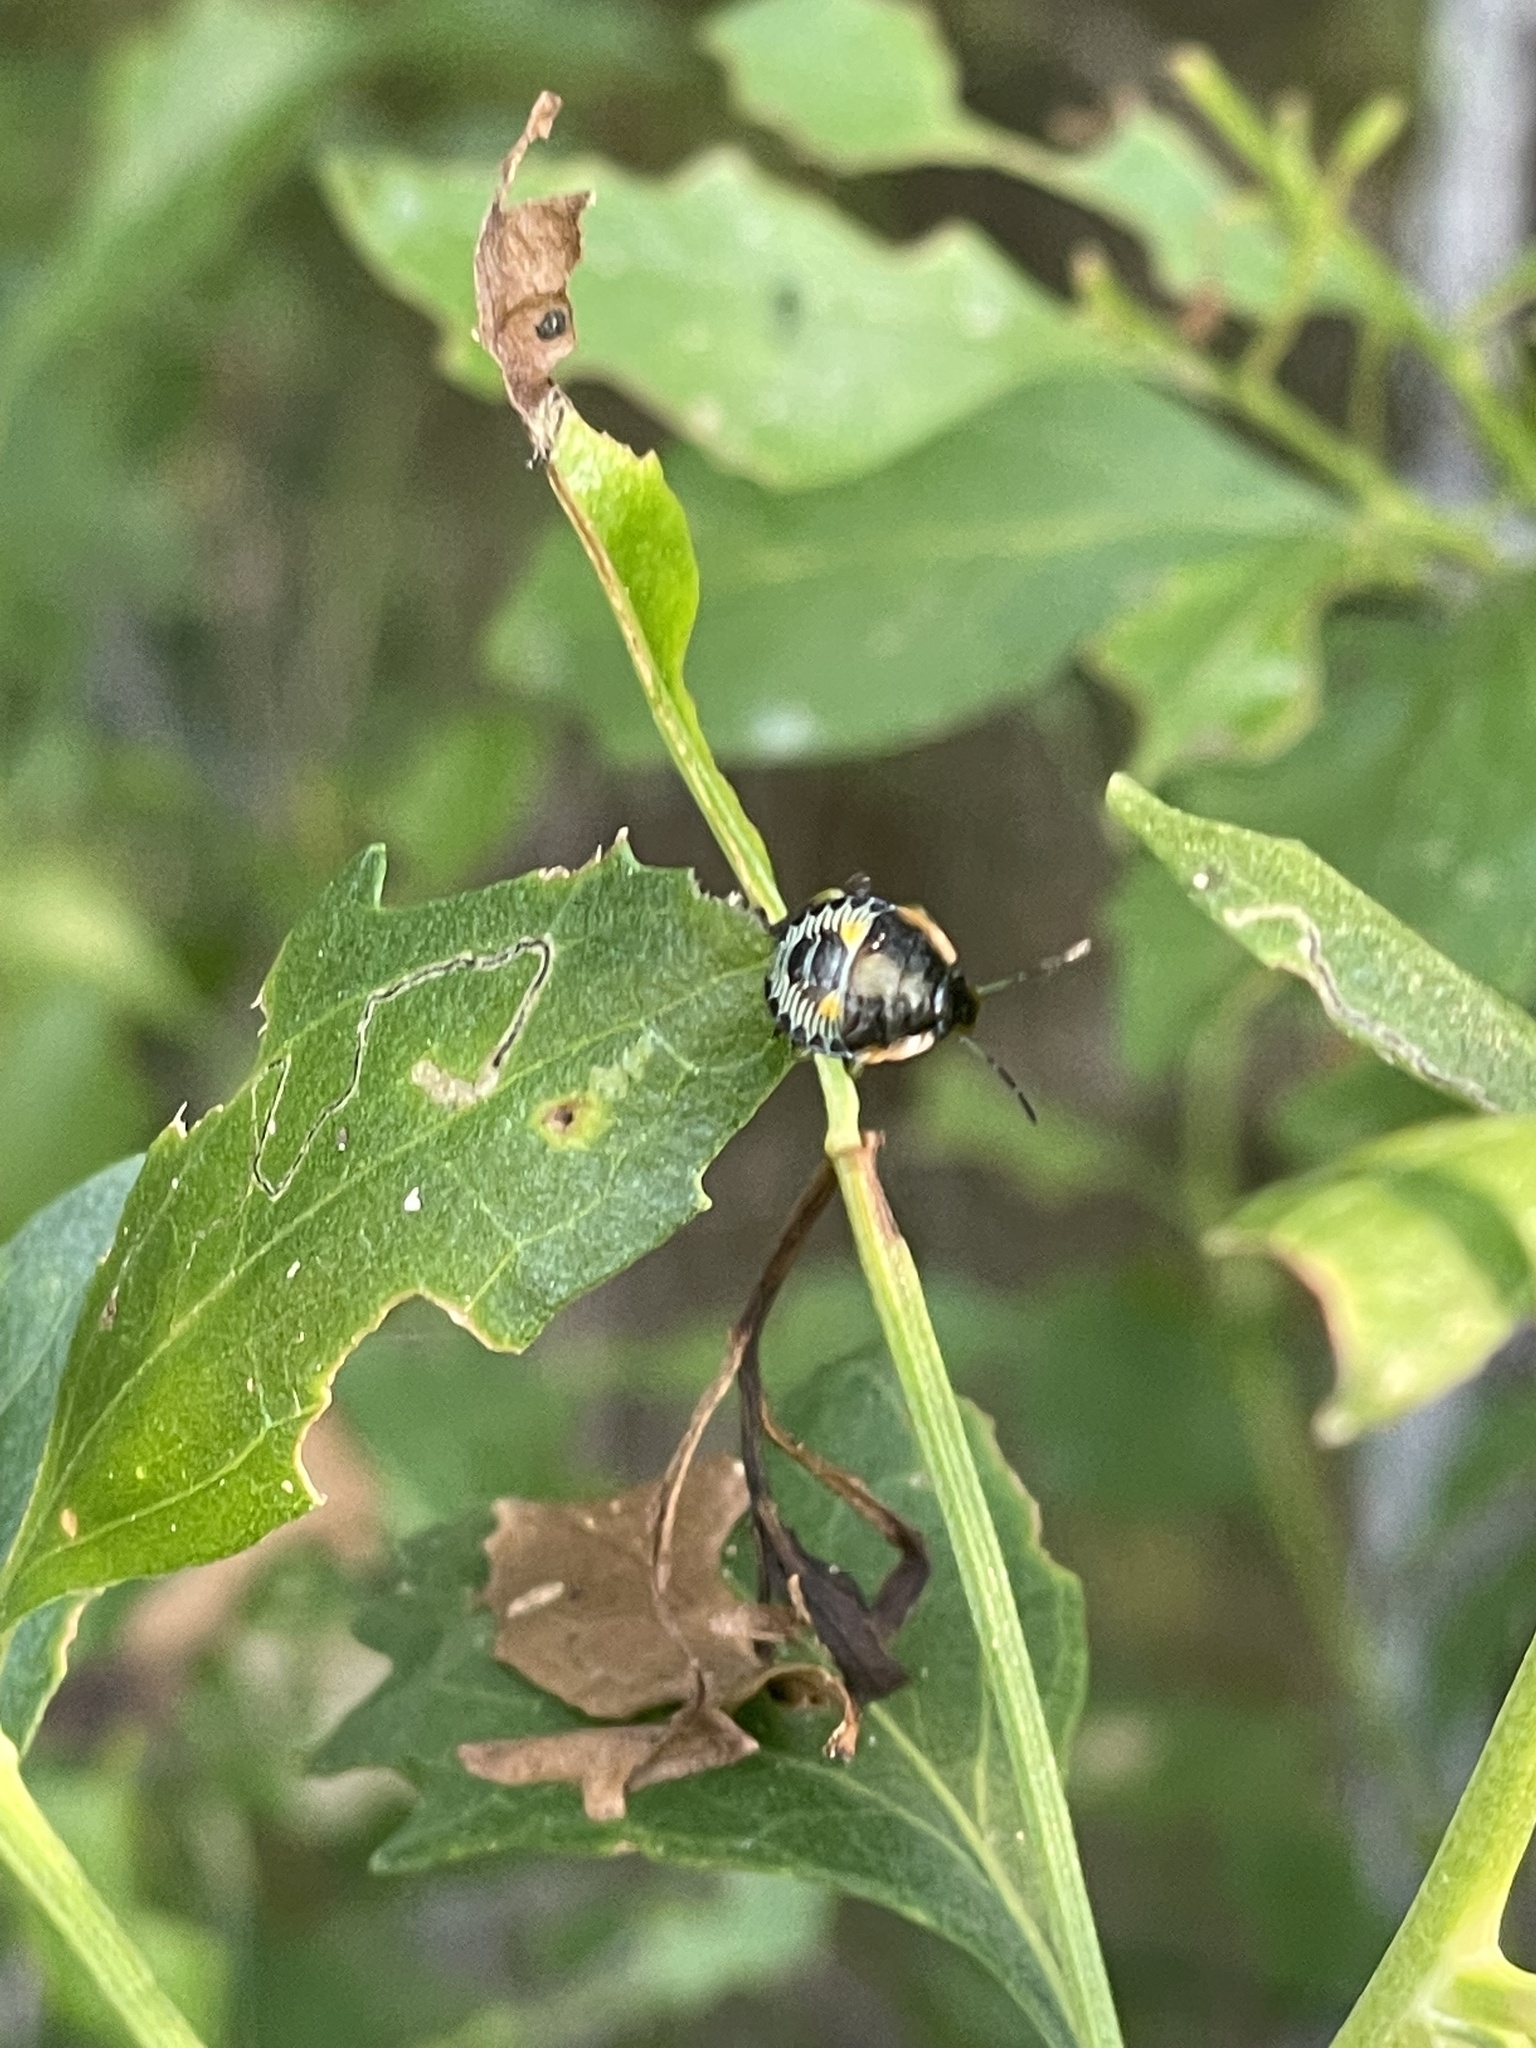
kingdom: Animalia
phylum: Arthropoda
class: Insecta
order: Hemiptera
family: Pentatomidae
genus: Chinavia
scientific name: Chinavia hilaris
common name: Green stink bug
